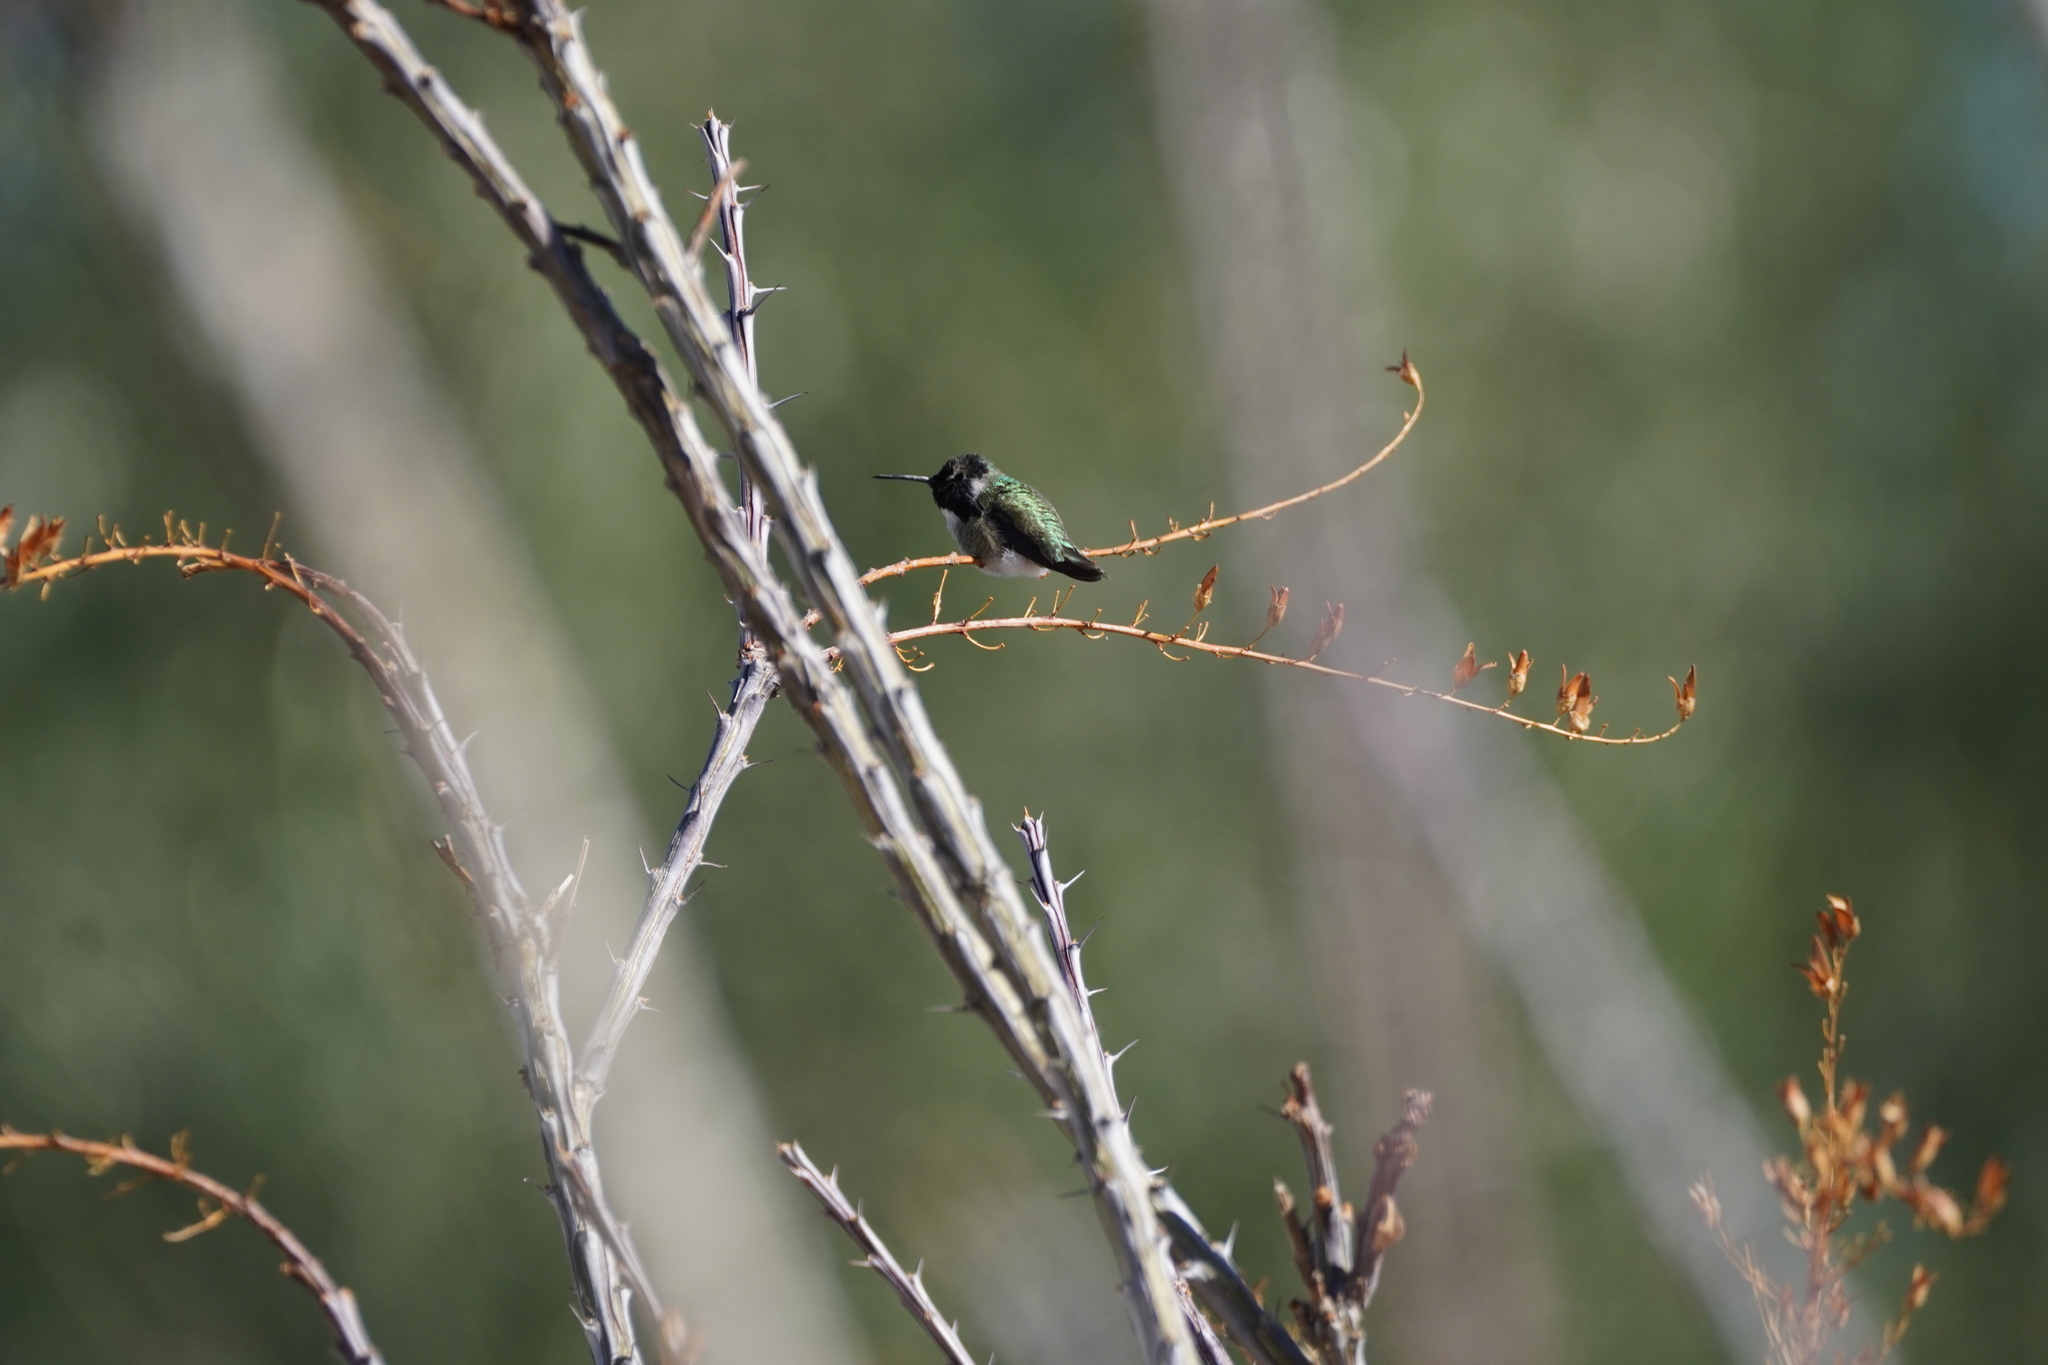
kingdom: Animalia
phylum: Chordata
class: Aves
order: Apodiformes
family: Trochilidae
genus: Calypte
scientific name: Calypte costae
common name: Costa's hummingbird
